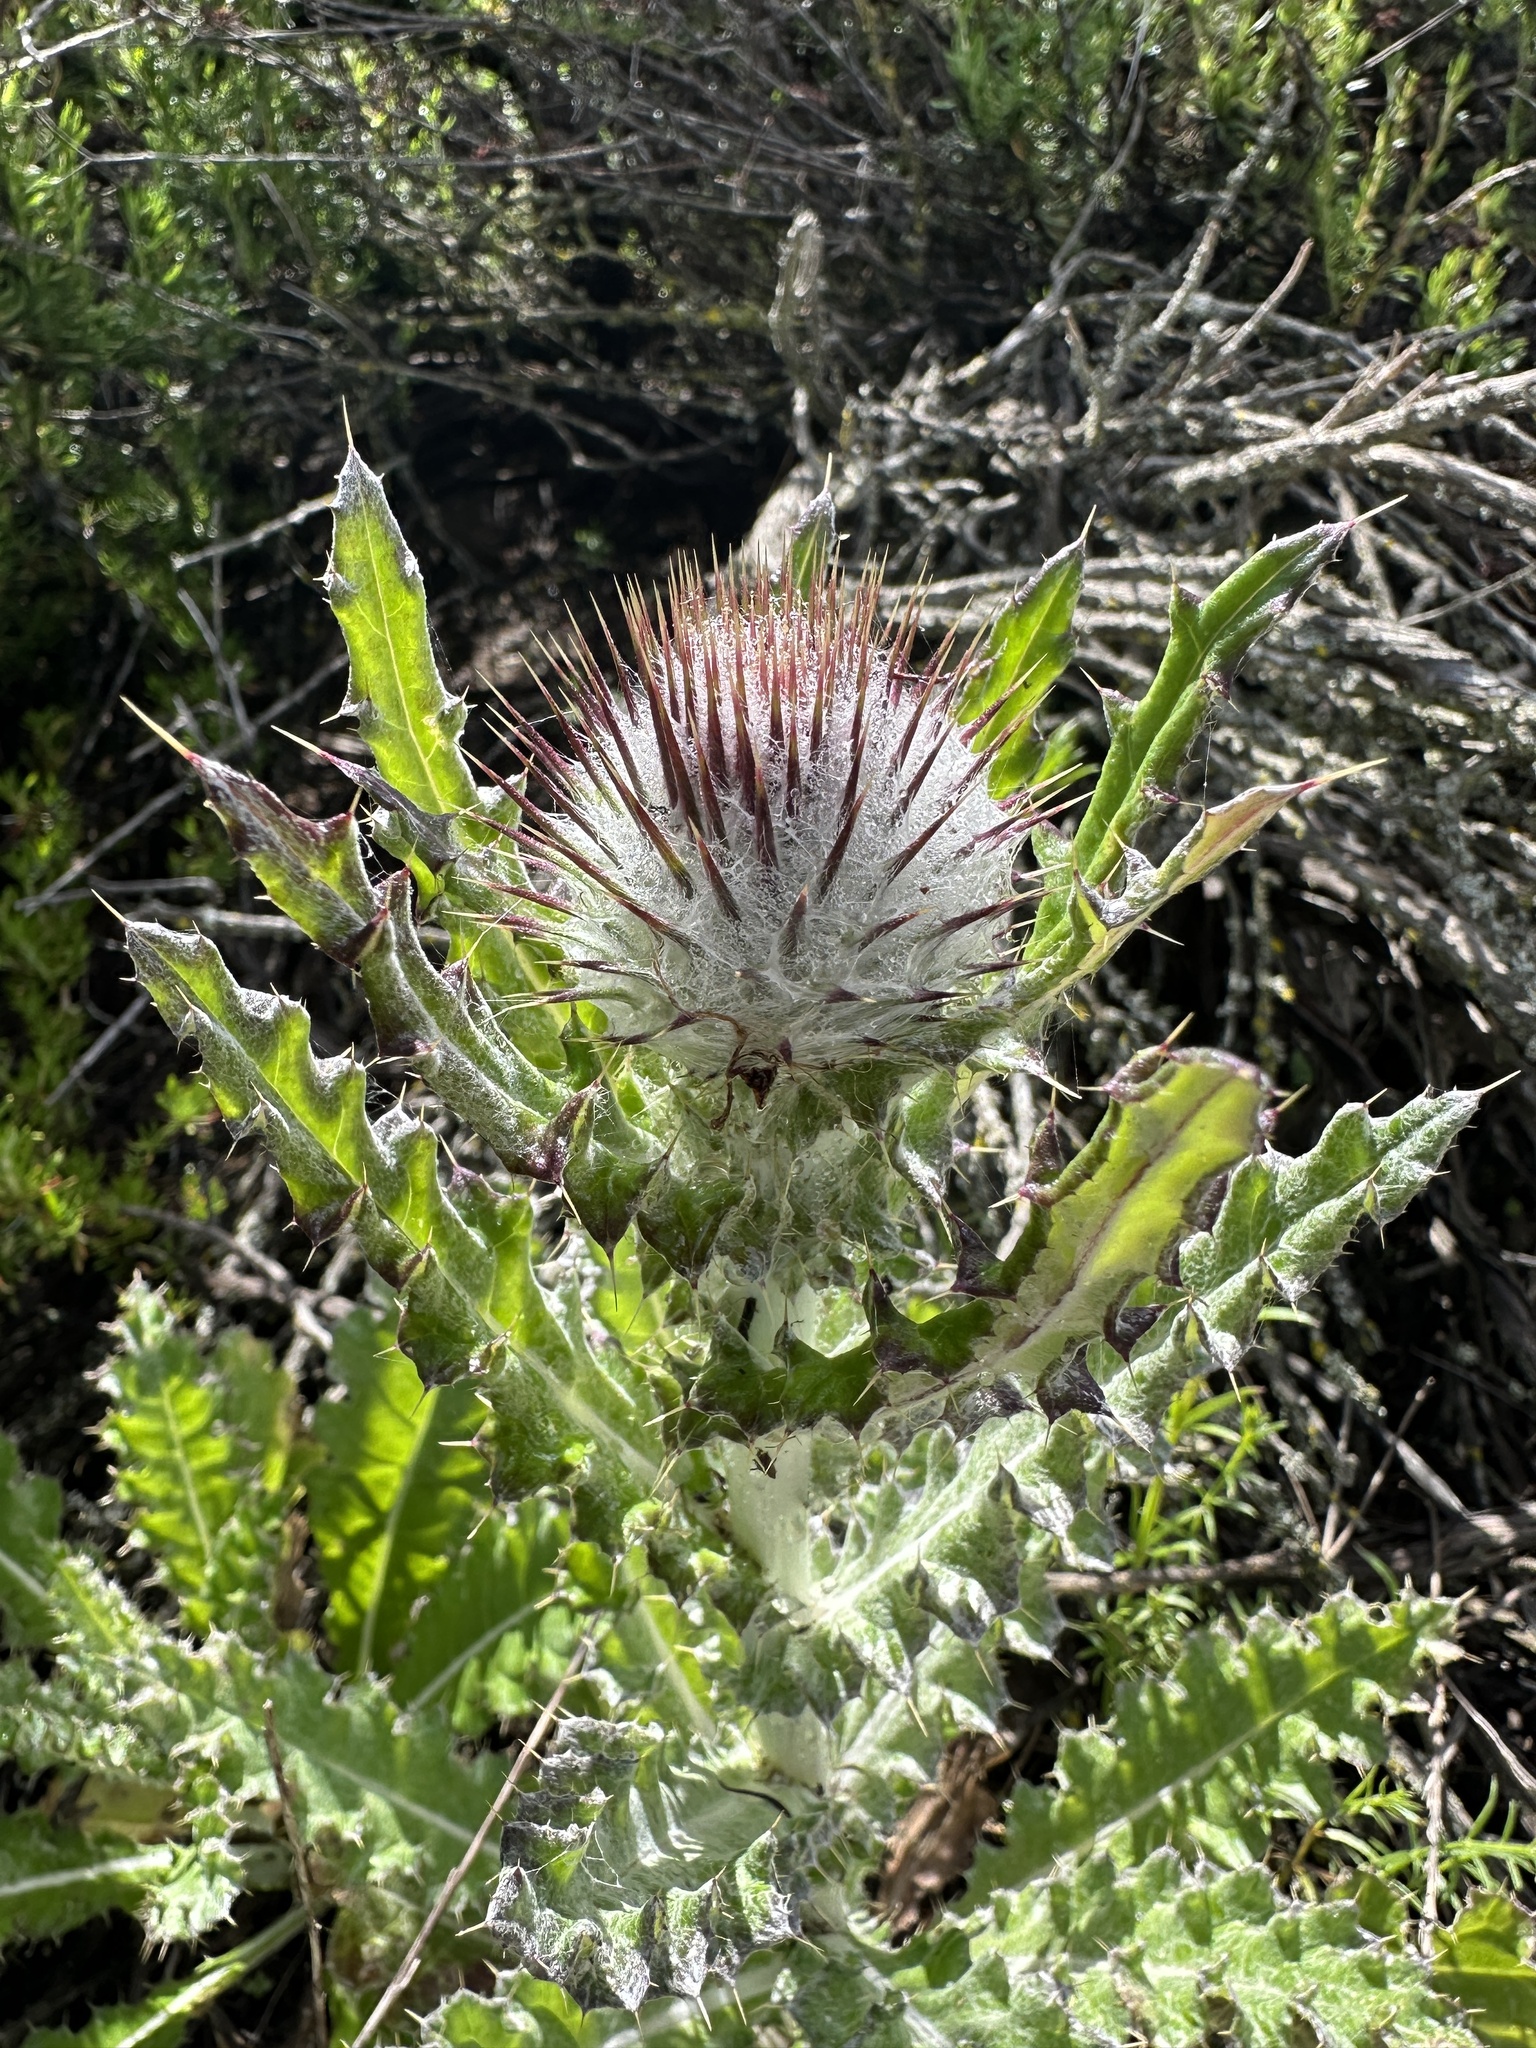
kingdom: Plantae
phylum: Tracheophyta
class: Magnoliopsida
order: Asterales
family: Asteraceae
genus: Cirsium
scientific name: Cirsium occidentale
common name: Western thistle
